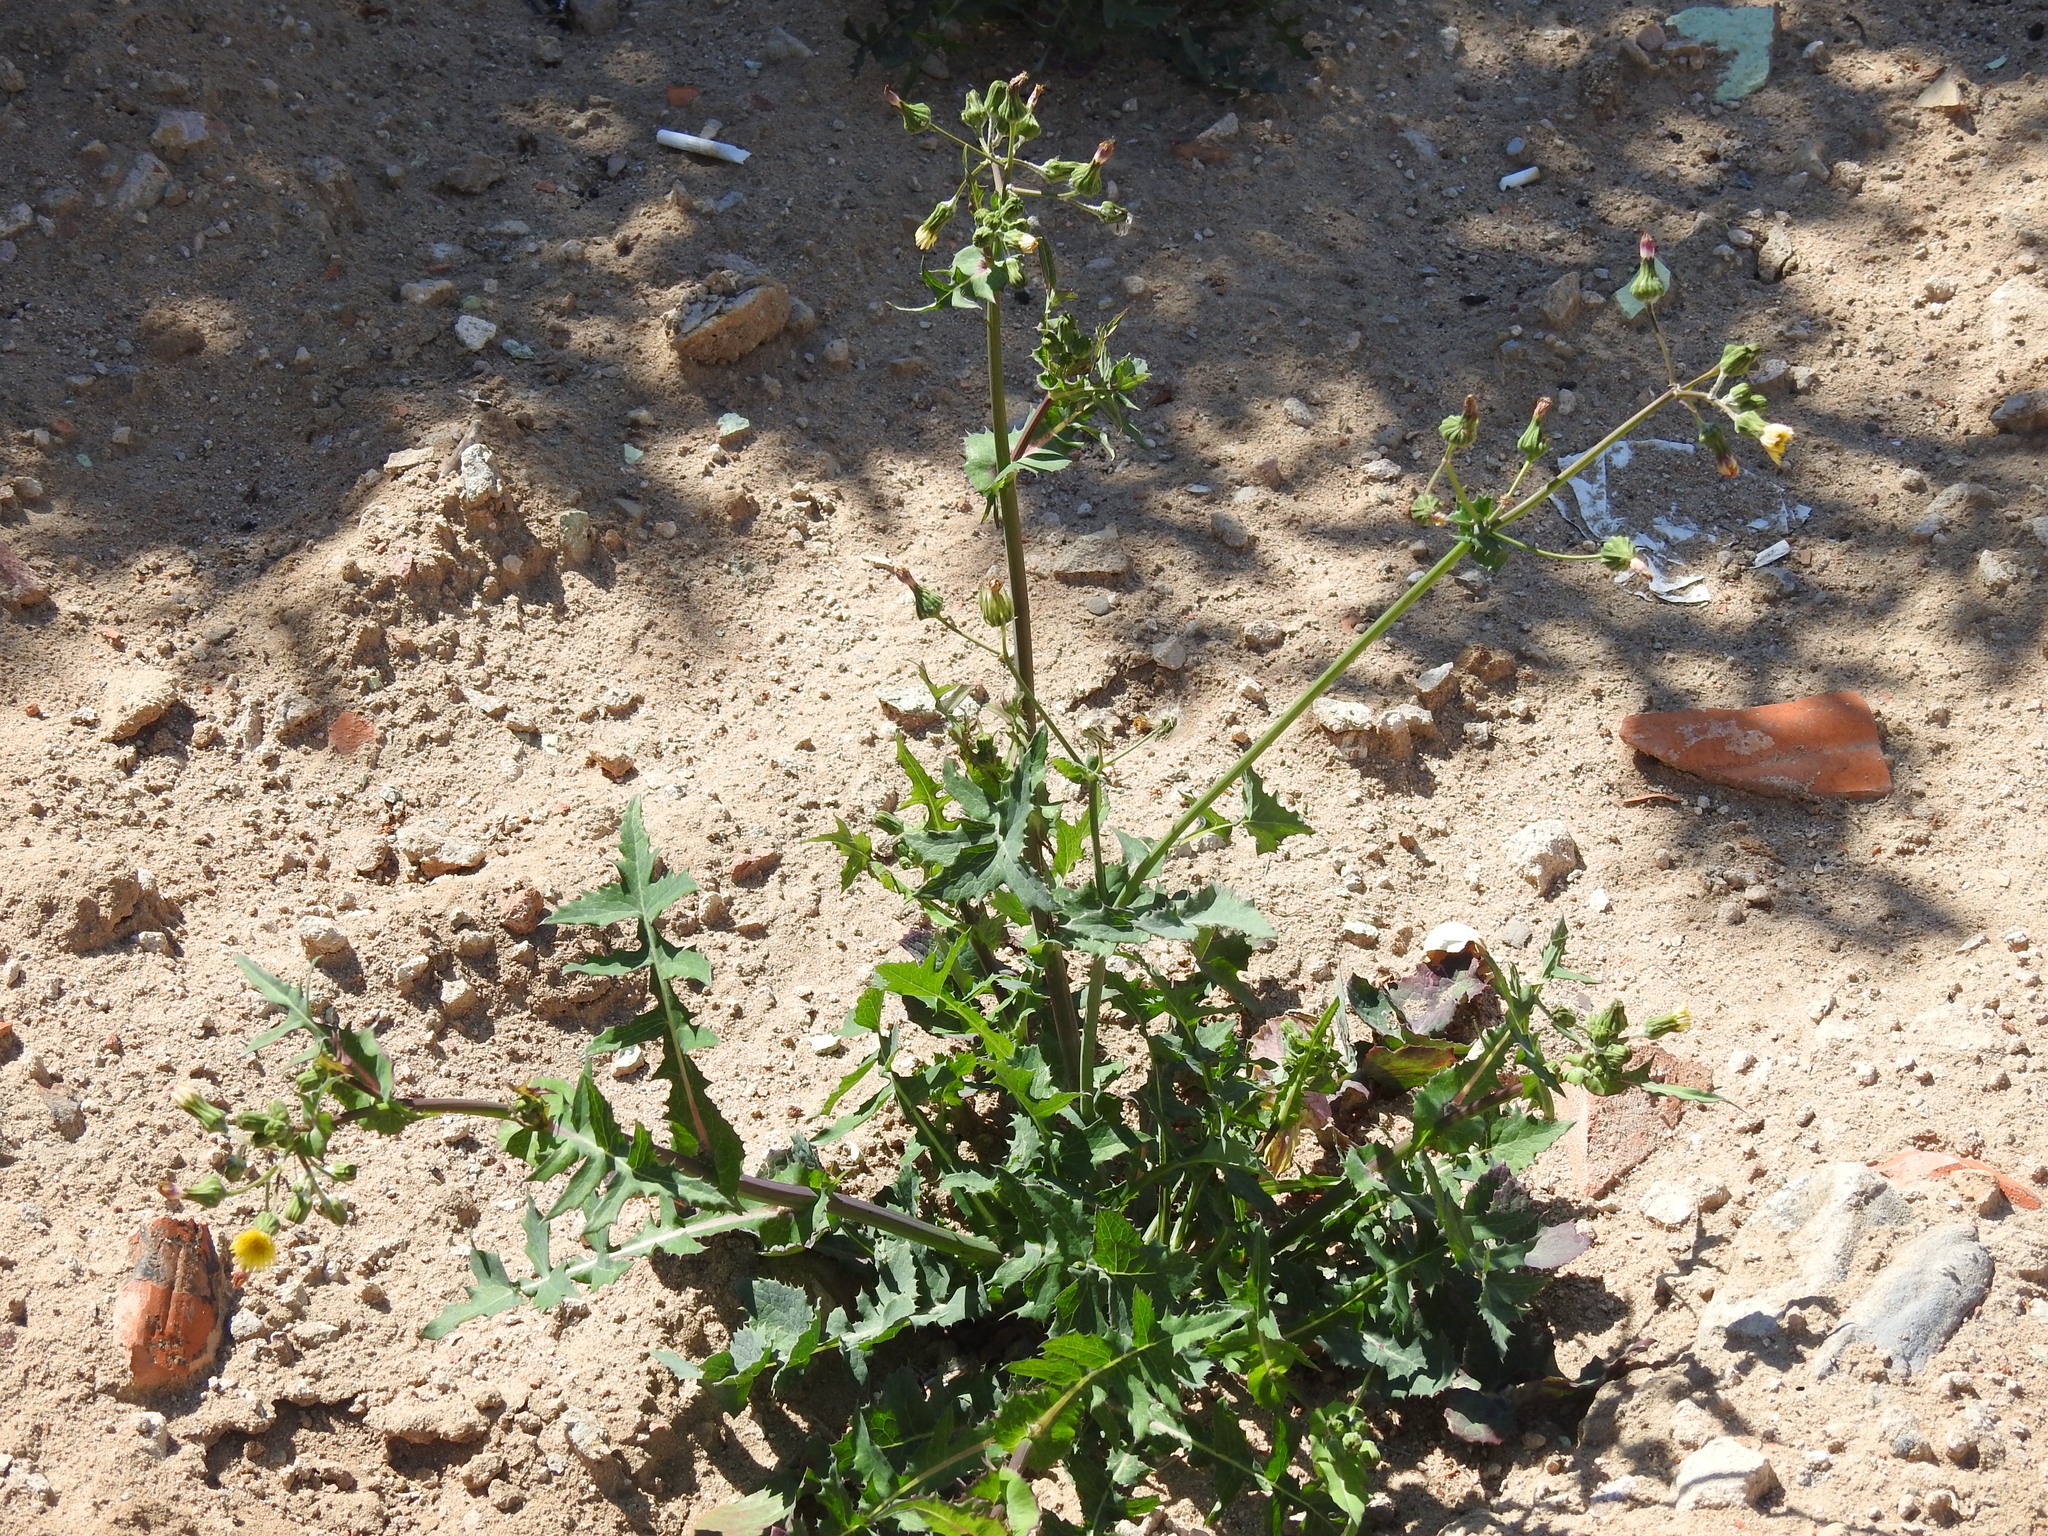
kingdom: Plantae
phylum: Tracheophyta
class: Magnoliopsida
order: Asterales
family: Asteraceae
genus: Sonchus
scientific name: Sonchus oleraceus
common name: Common sowthistle
